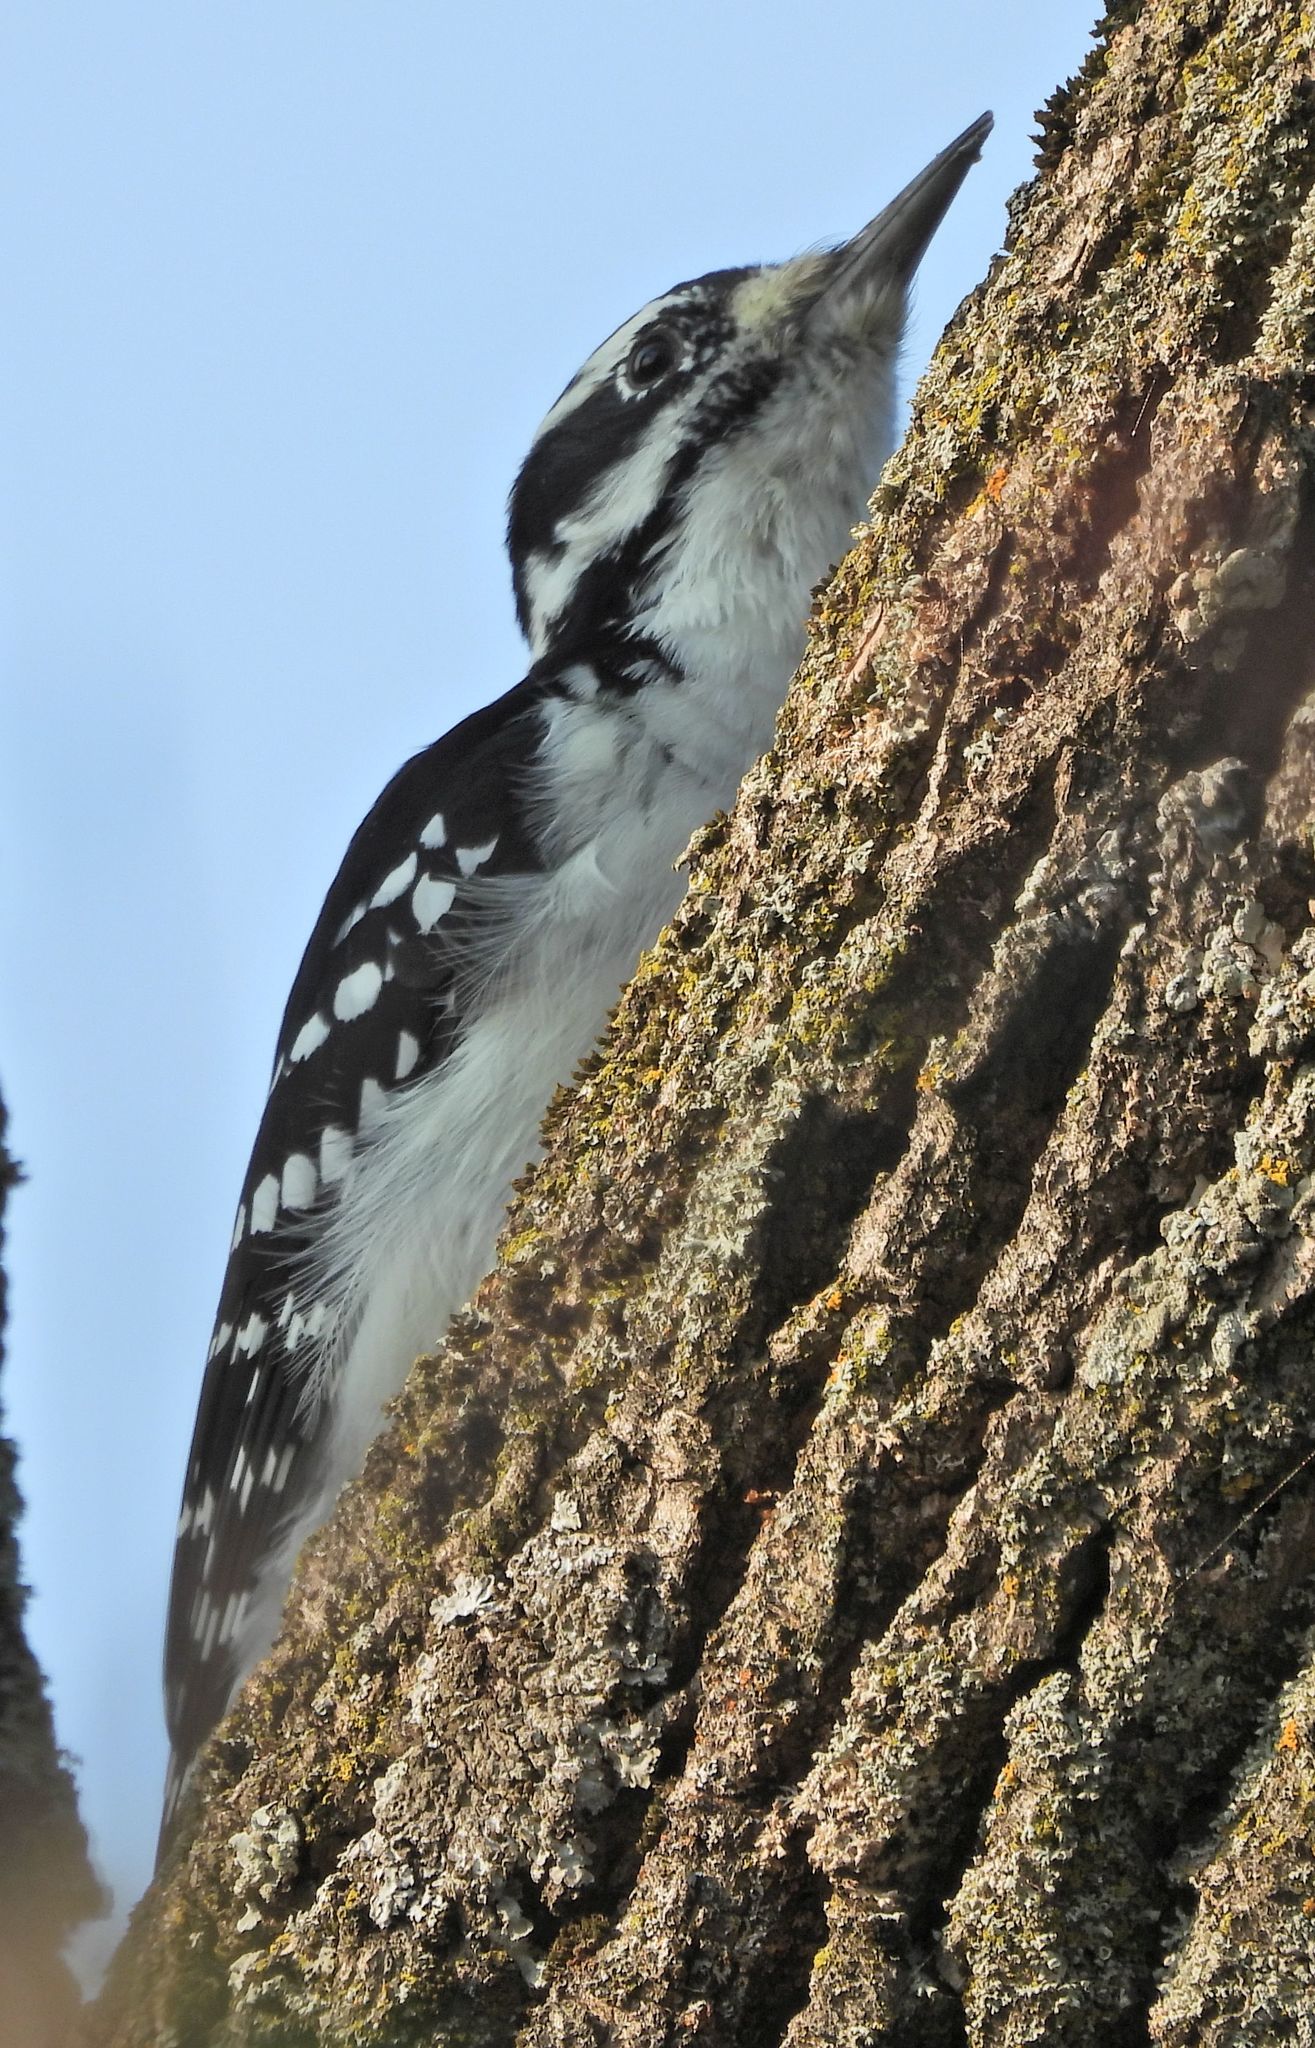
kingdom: Animalia
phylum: Chordata
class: Aves
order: Piciformes
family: Picidae
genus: Leuconotopicus
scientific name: Leuconotopicus villosus
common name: Hairy woodpecker
